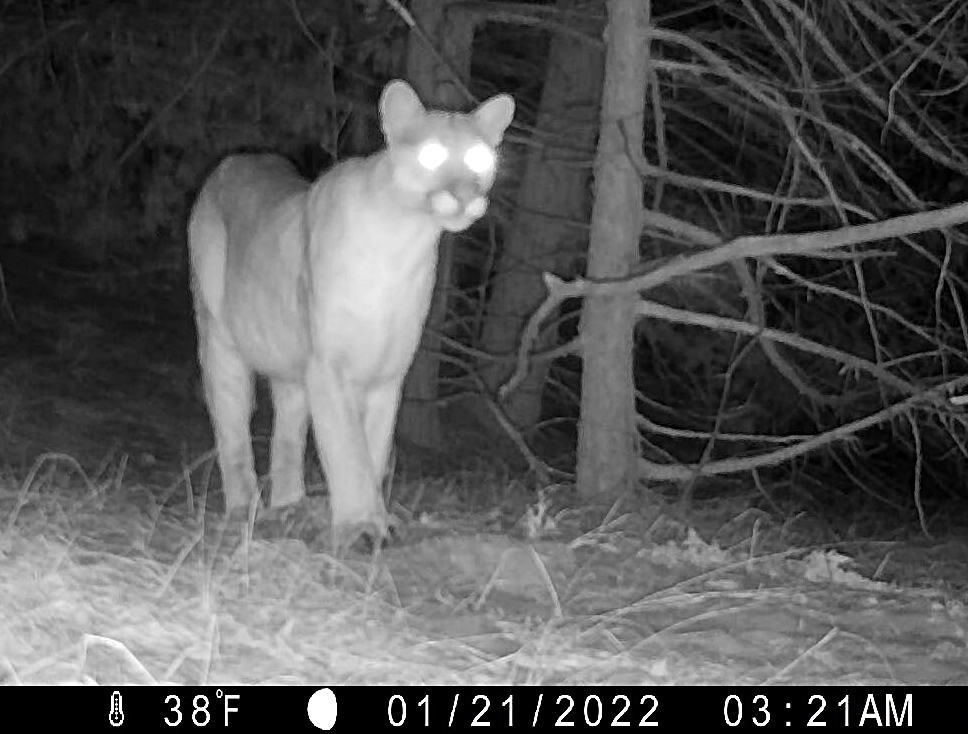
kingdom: Animalia
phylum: Chordata
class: Mammalia
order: Carnivora
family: Felidae
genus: Puma
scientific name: Puma concolor
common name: Puma
